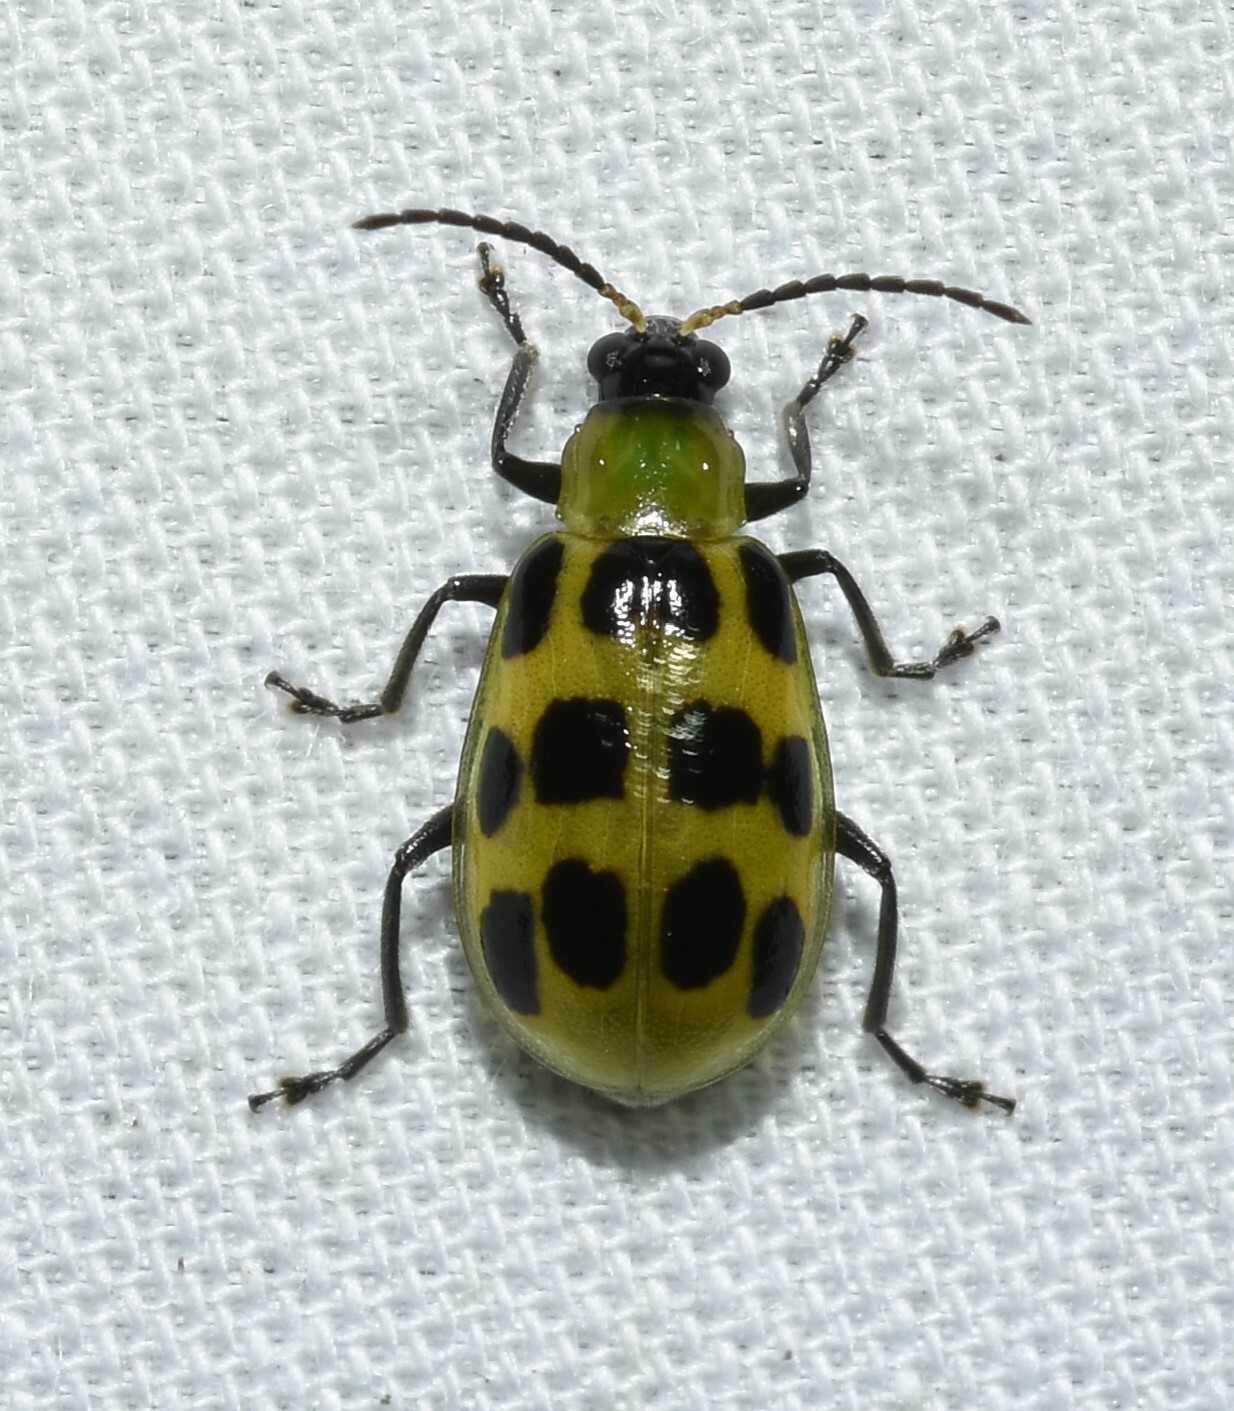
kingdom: Animalia
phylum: Arthropoda
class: Insecta
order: Coleoptera
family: Chrysomelidae
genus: Diabrotica
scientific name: Diabrotica undecimpunctata
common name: Spotted cucumber beetle
